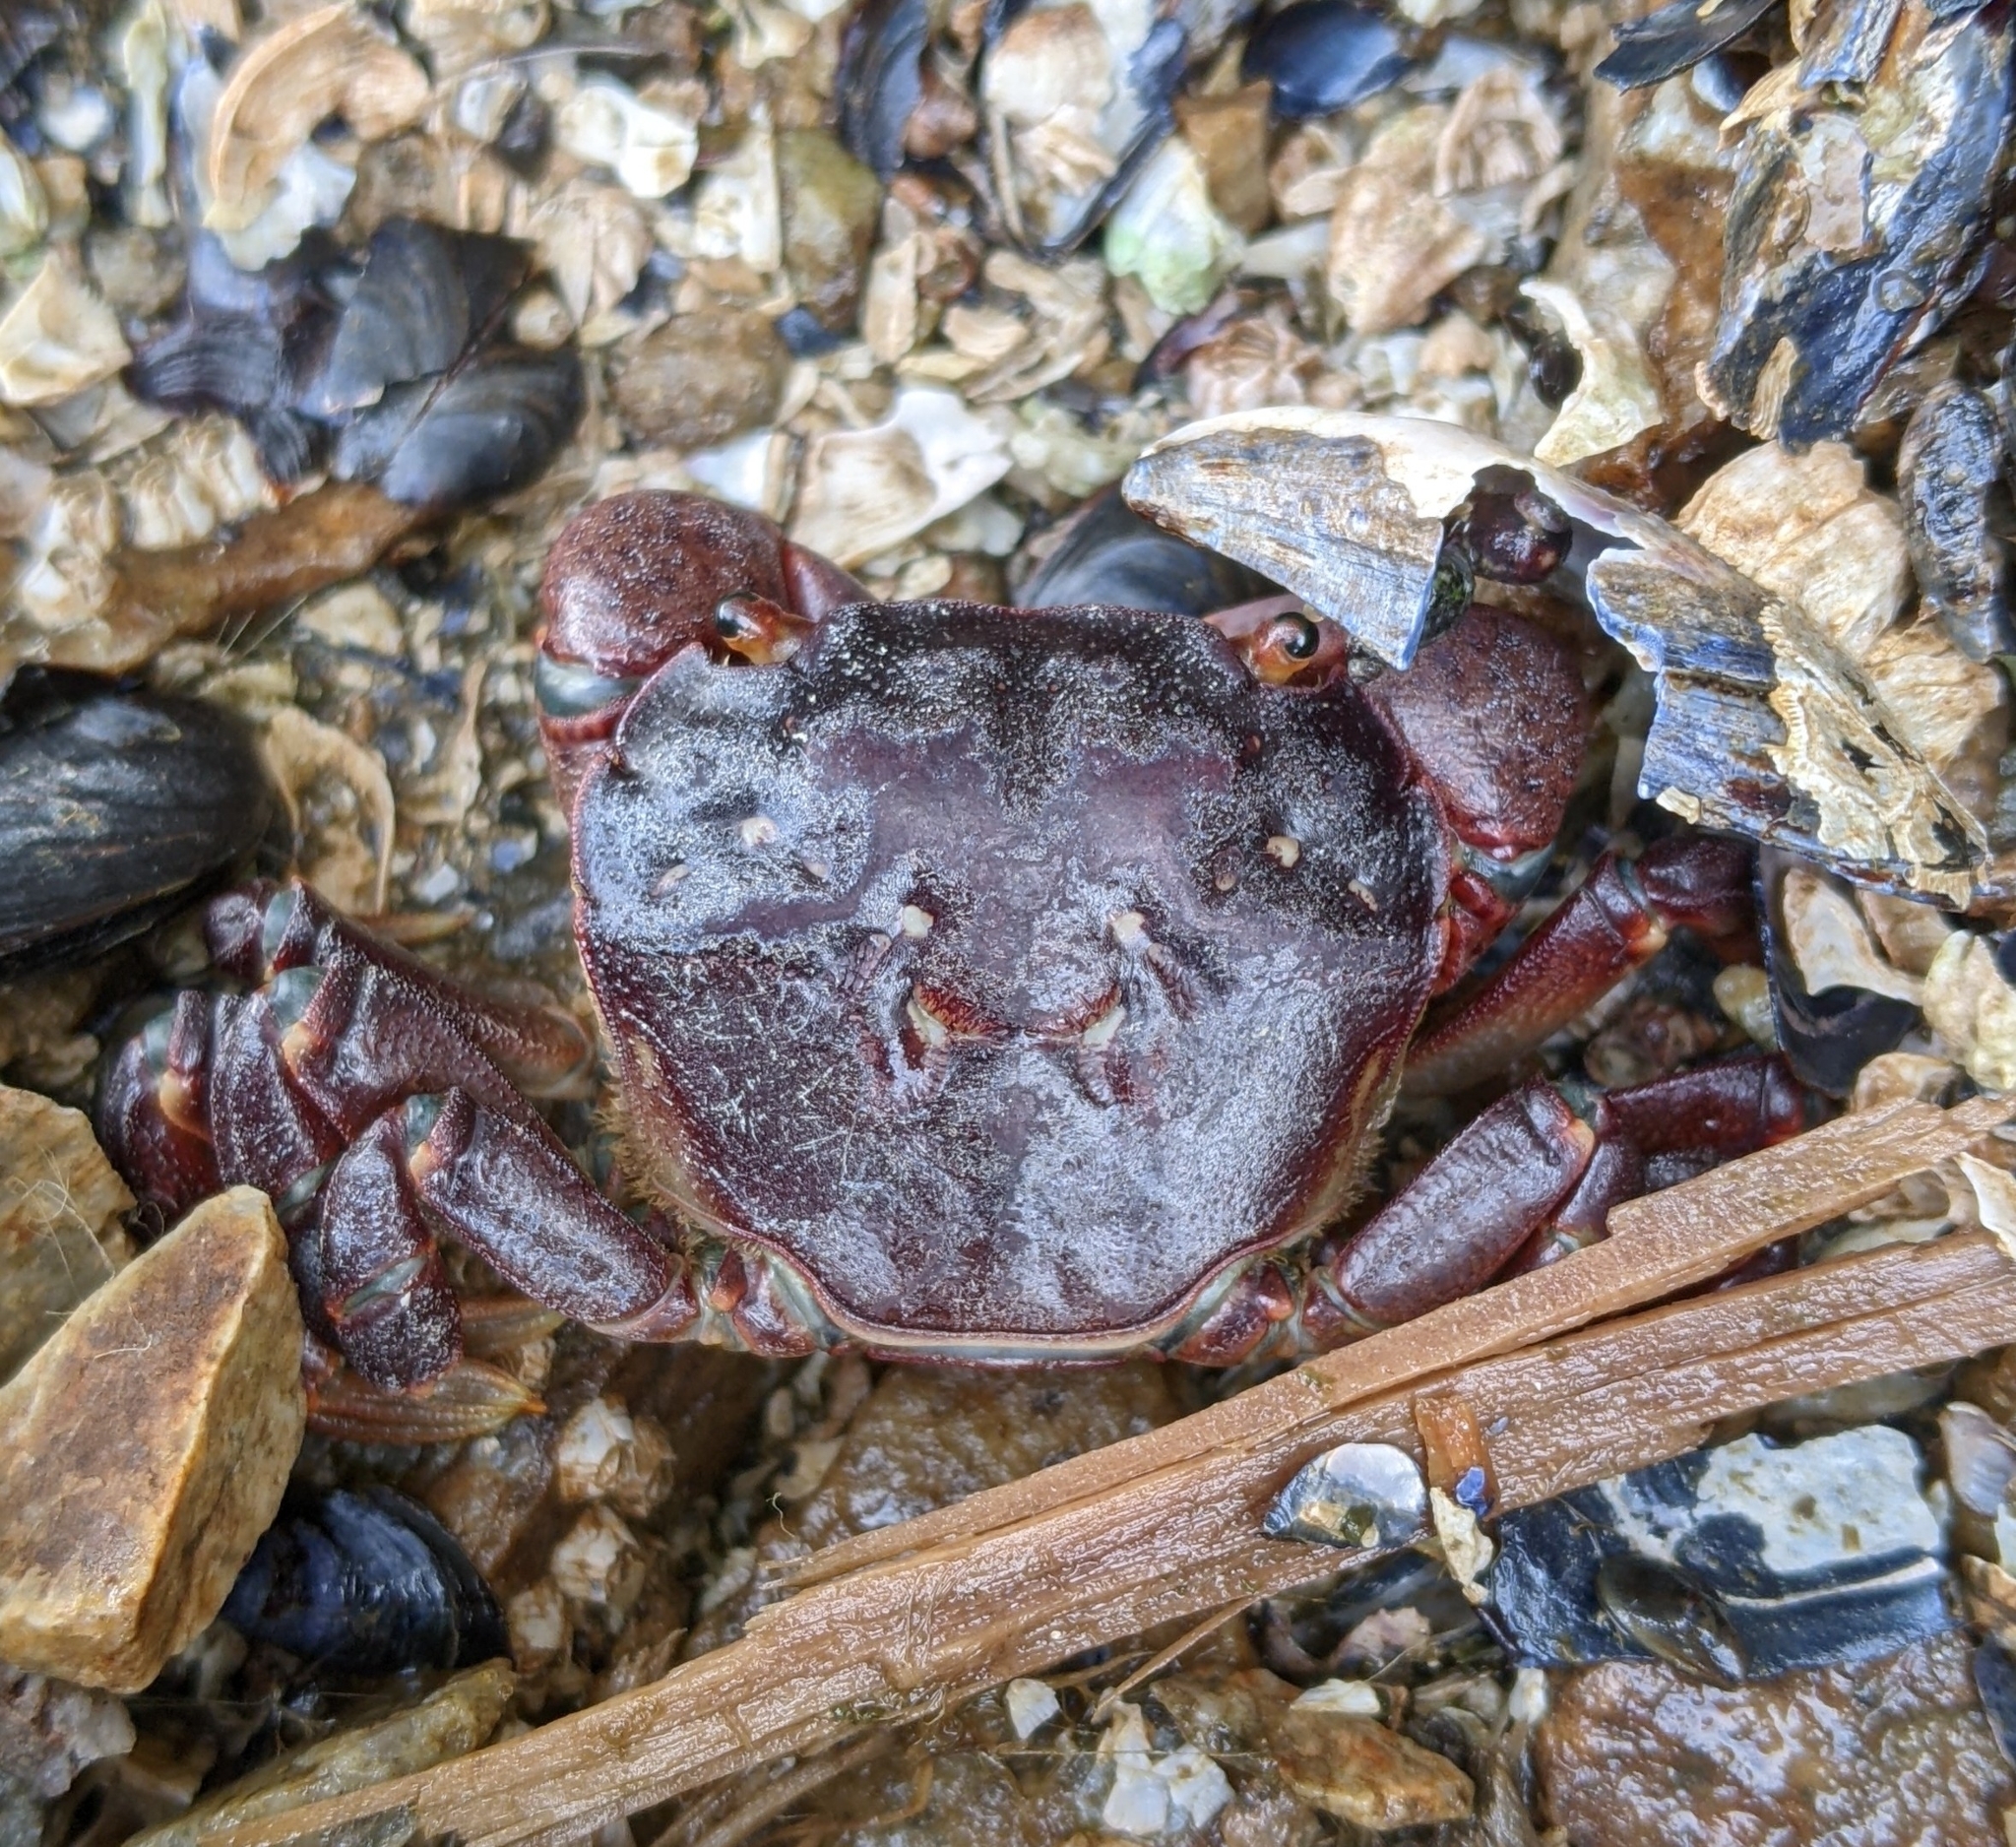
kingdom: Animalia
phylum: Arthropoda
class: Malacostraca
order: Decapoda
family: Varunidae
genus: Hemigrapsus
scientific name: Hemigrapsus nudus
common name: Purple shore crab
